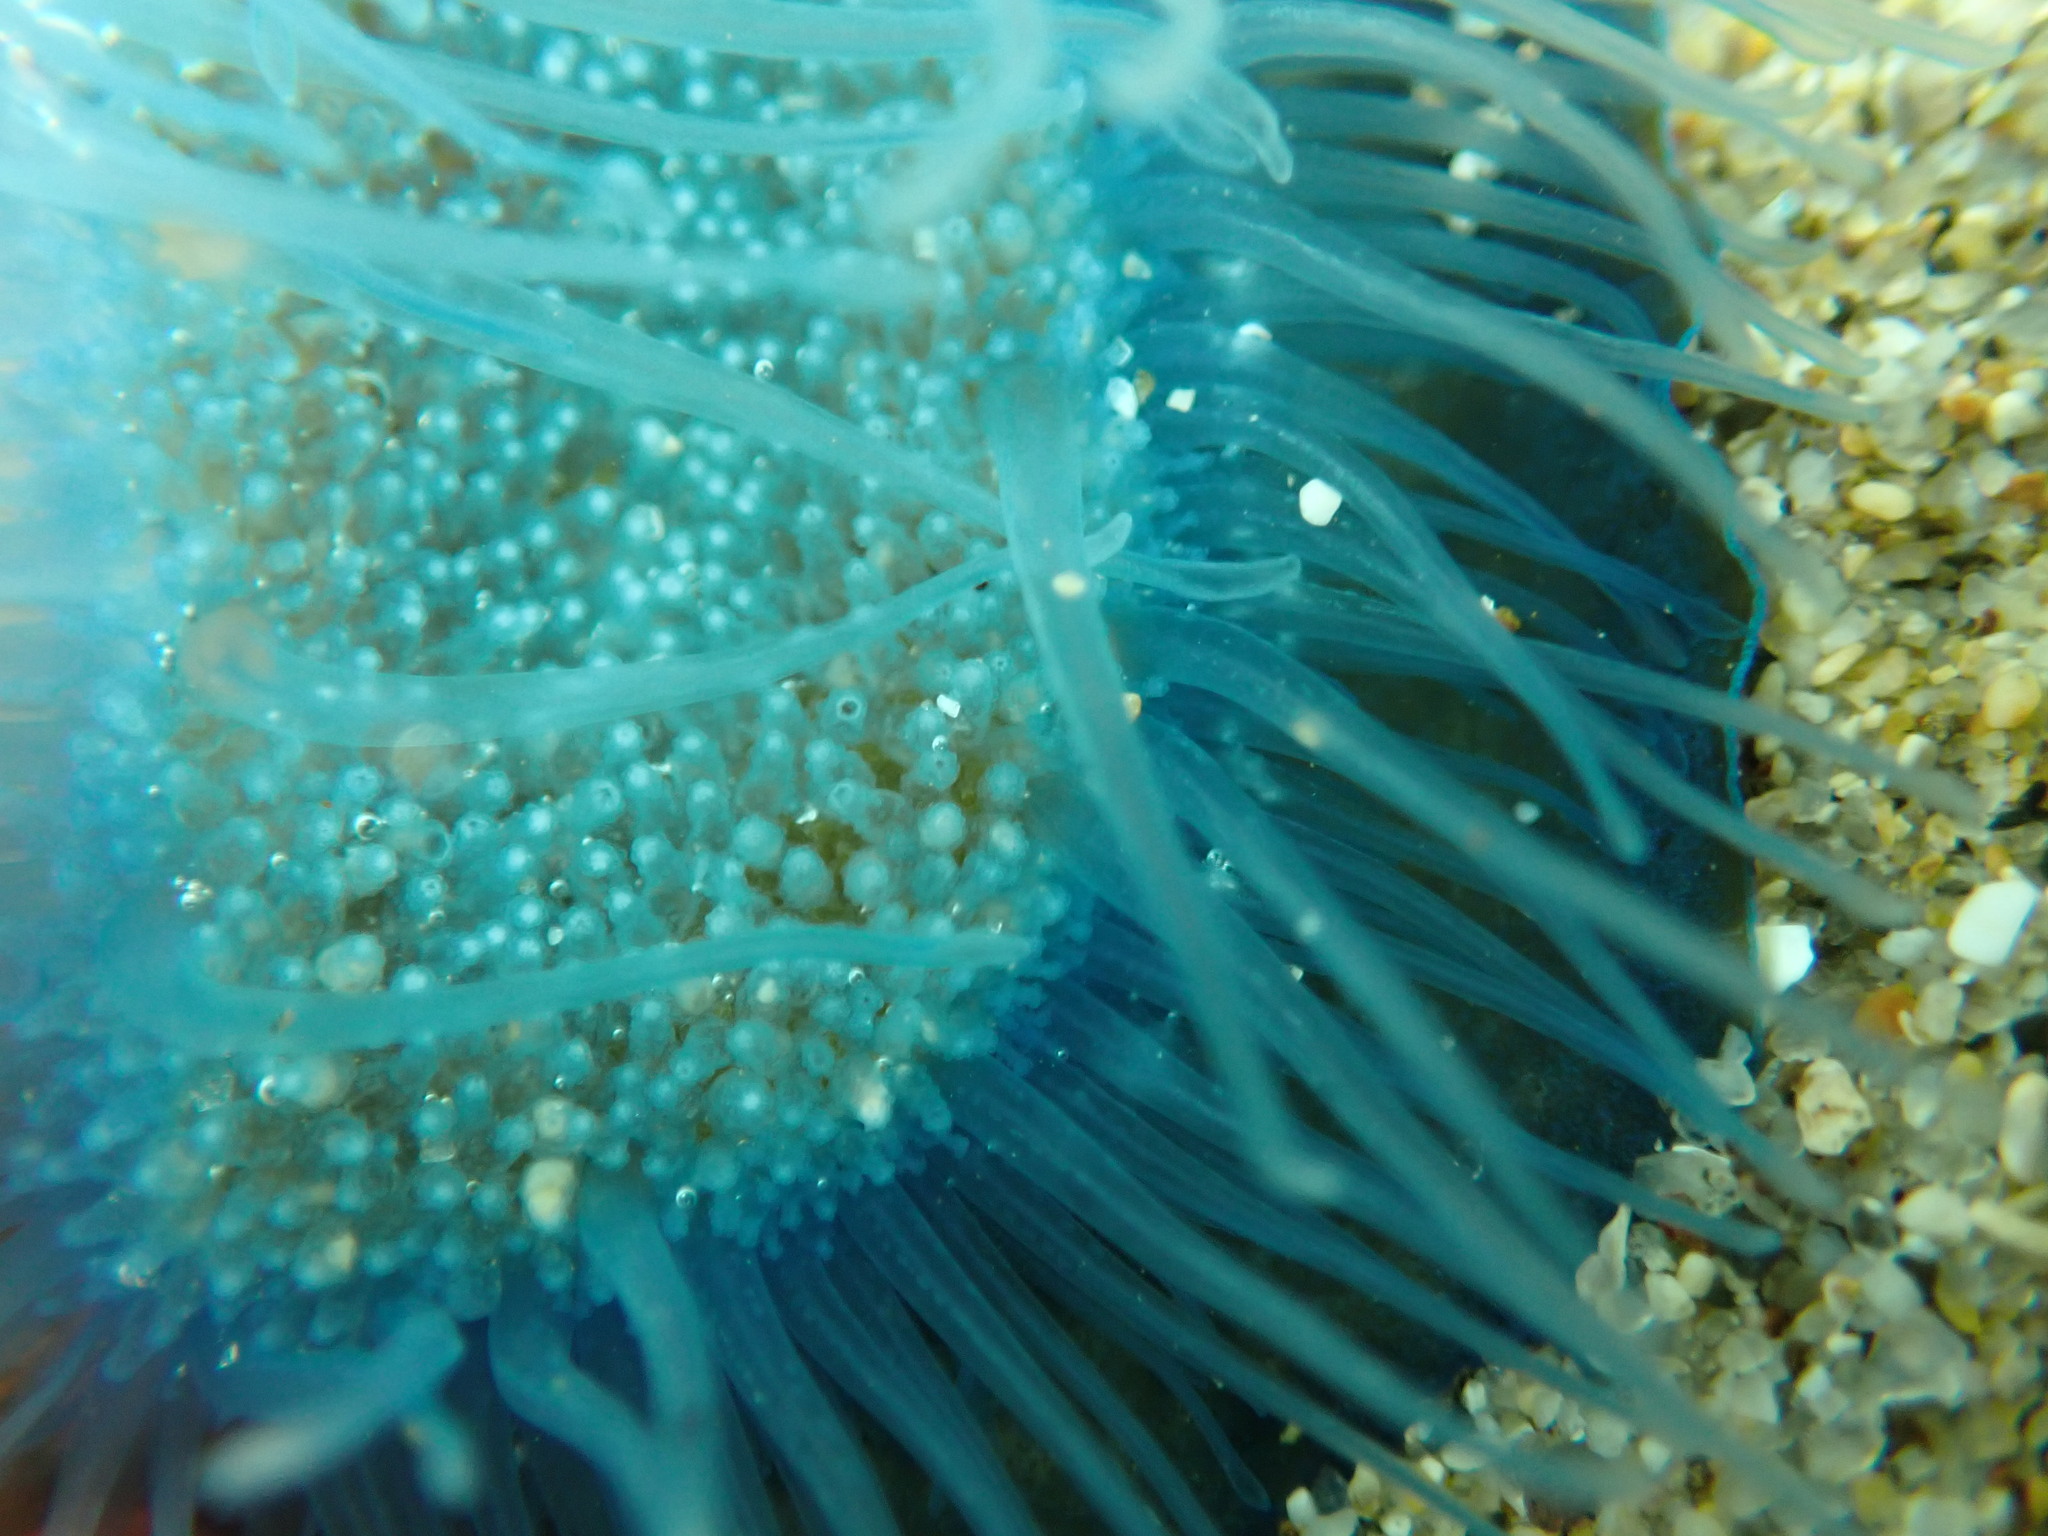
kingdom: Animalia
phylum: Cnidaria
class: Hydrozoa
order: Anthoathecata
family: Porpitidae
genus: Velella
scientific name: Velella velella
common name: By-the-wind-sailor
